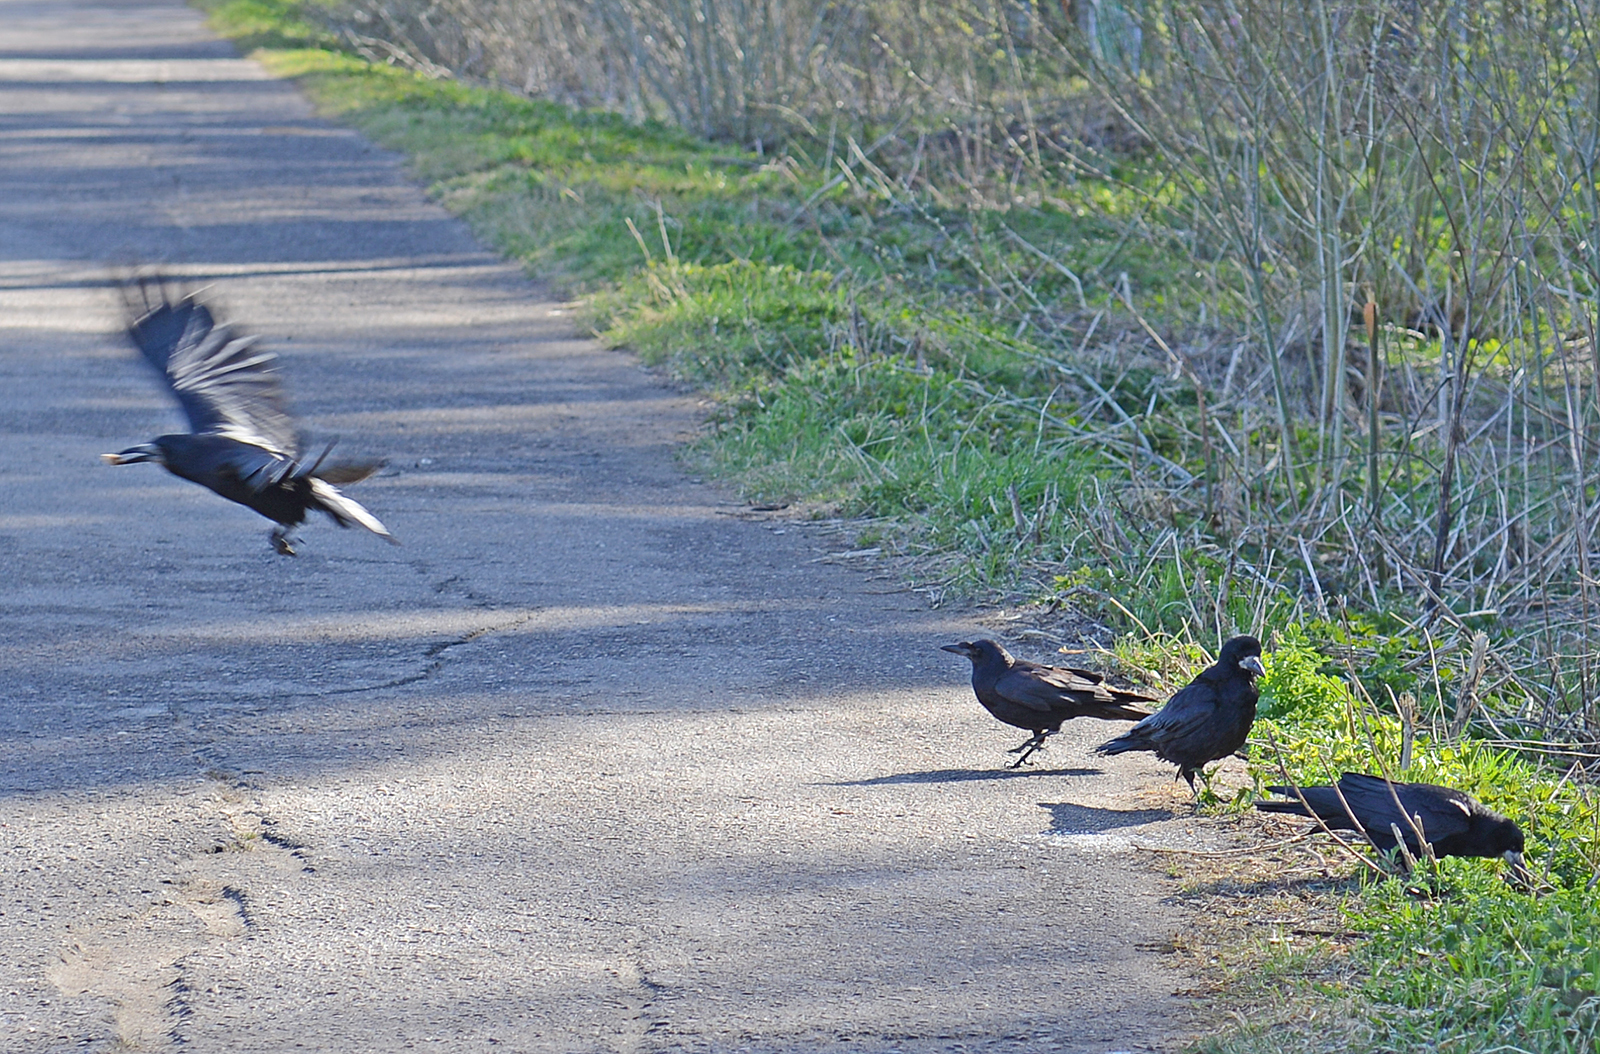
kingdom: Animalia
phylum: Chordata
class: Aves
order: Passeriformes
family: Corvidae
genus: Corvus
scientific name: Corvus frugilegus
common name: Rook
